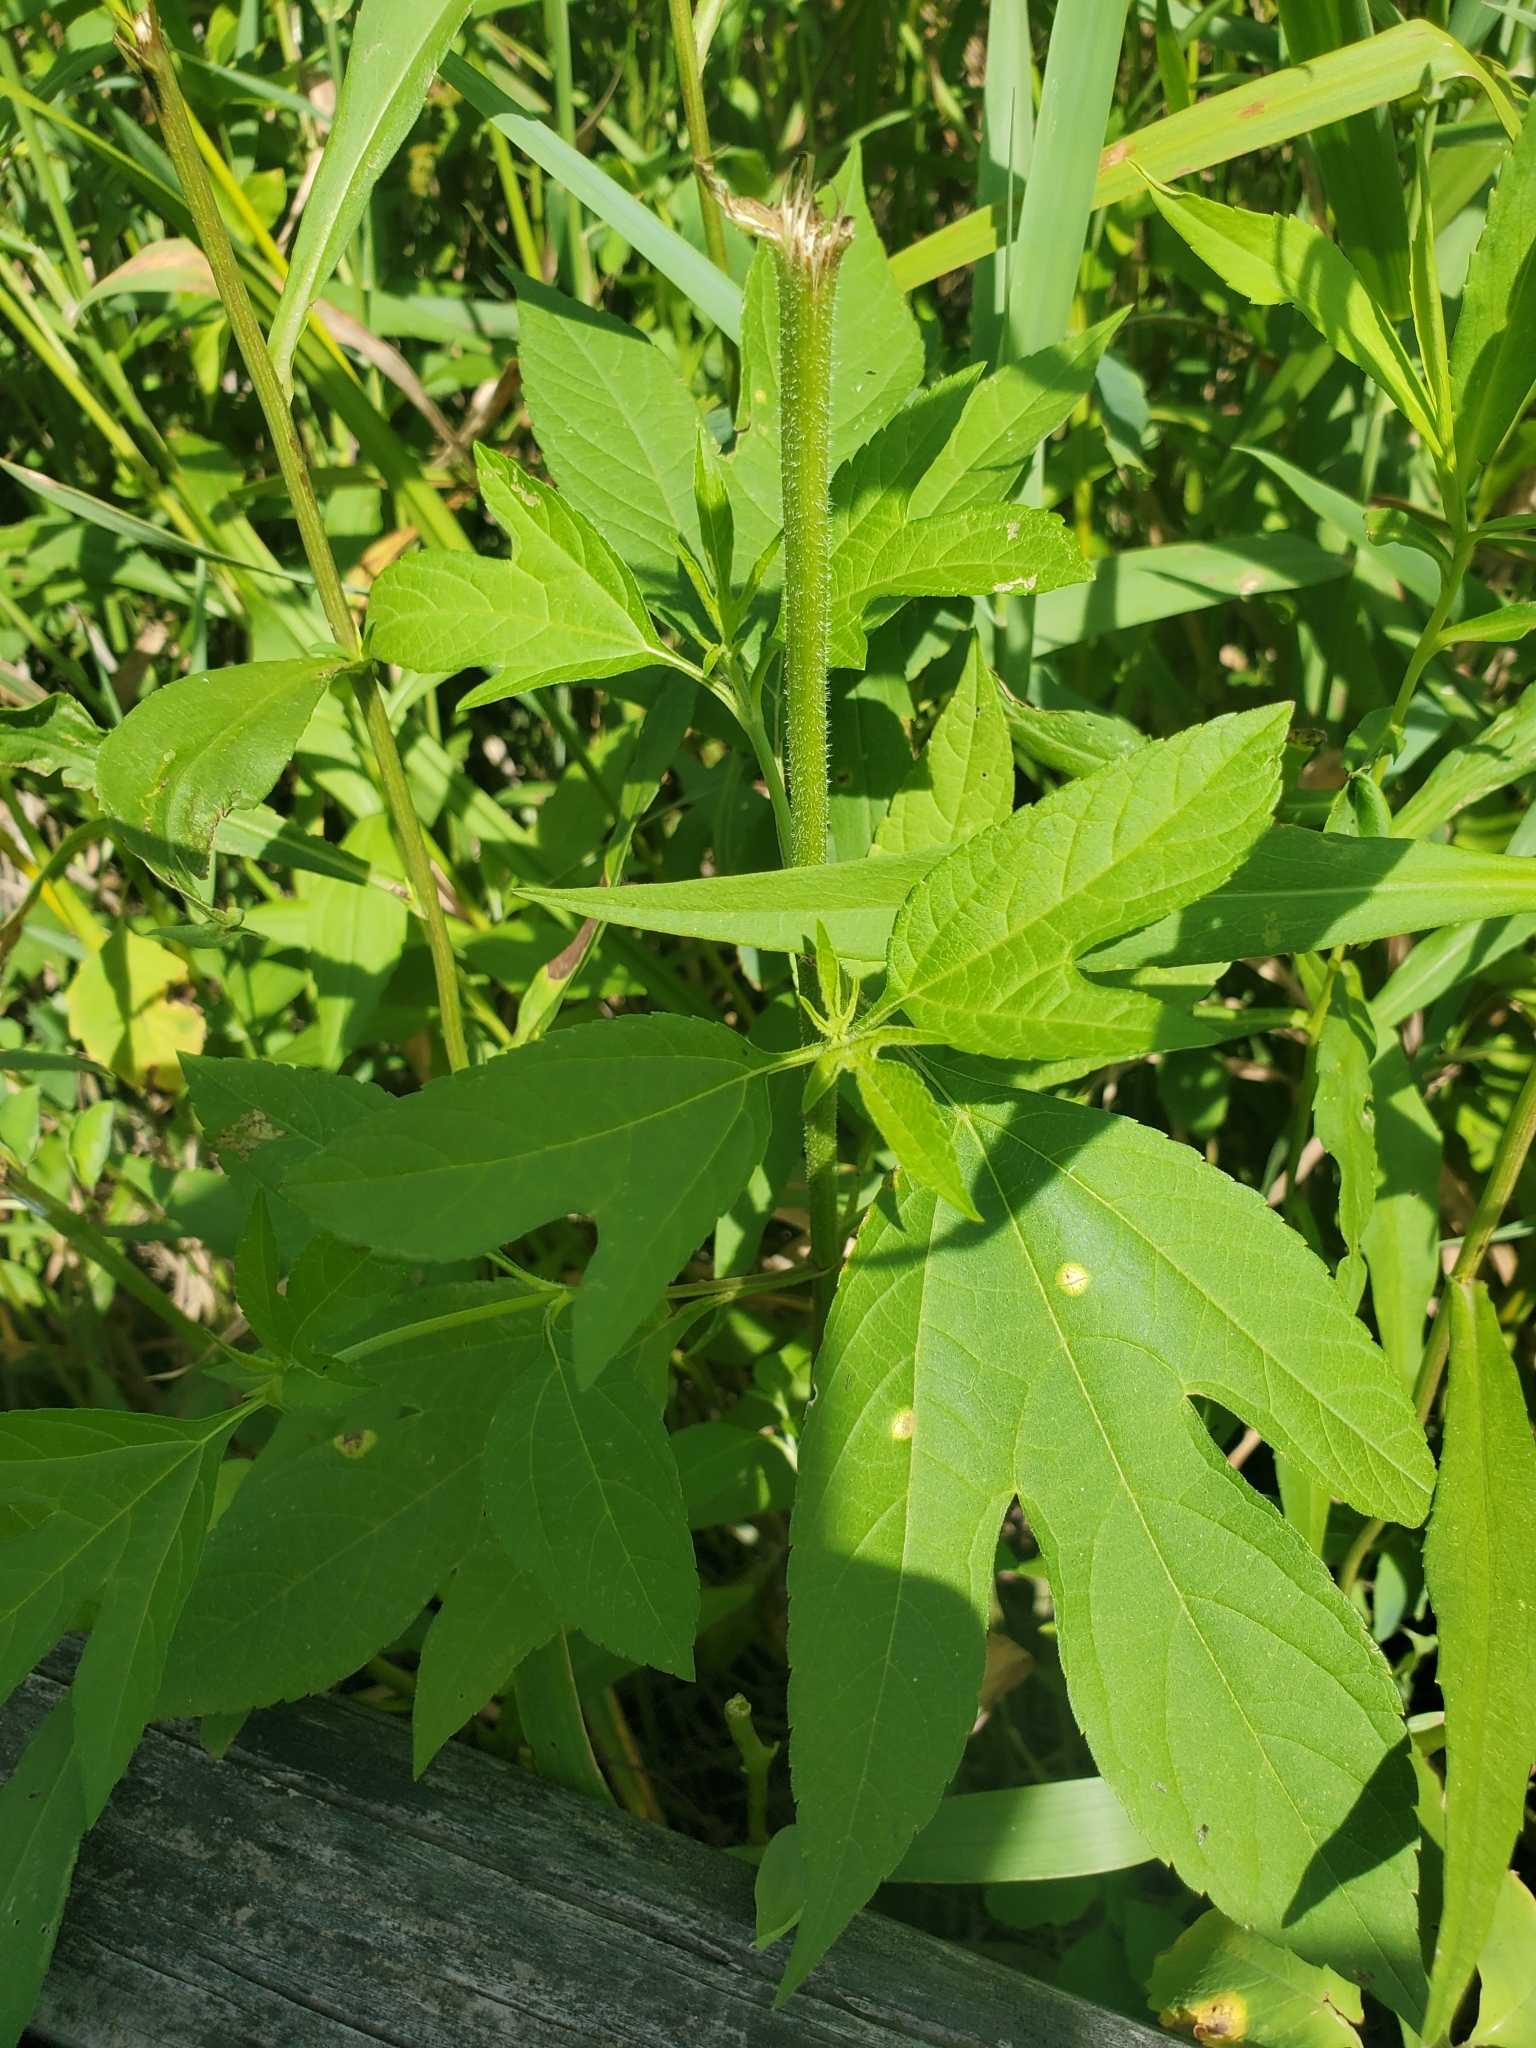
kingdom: Plantae
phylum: Tracheophyta
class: Magnoliopsida
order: Asterales
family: Asteraceae
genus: Ambrosia
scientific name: Ambrosia trifida
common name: Giant ragweed
